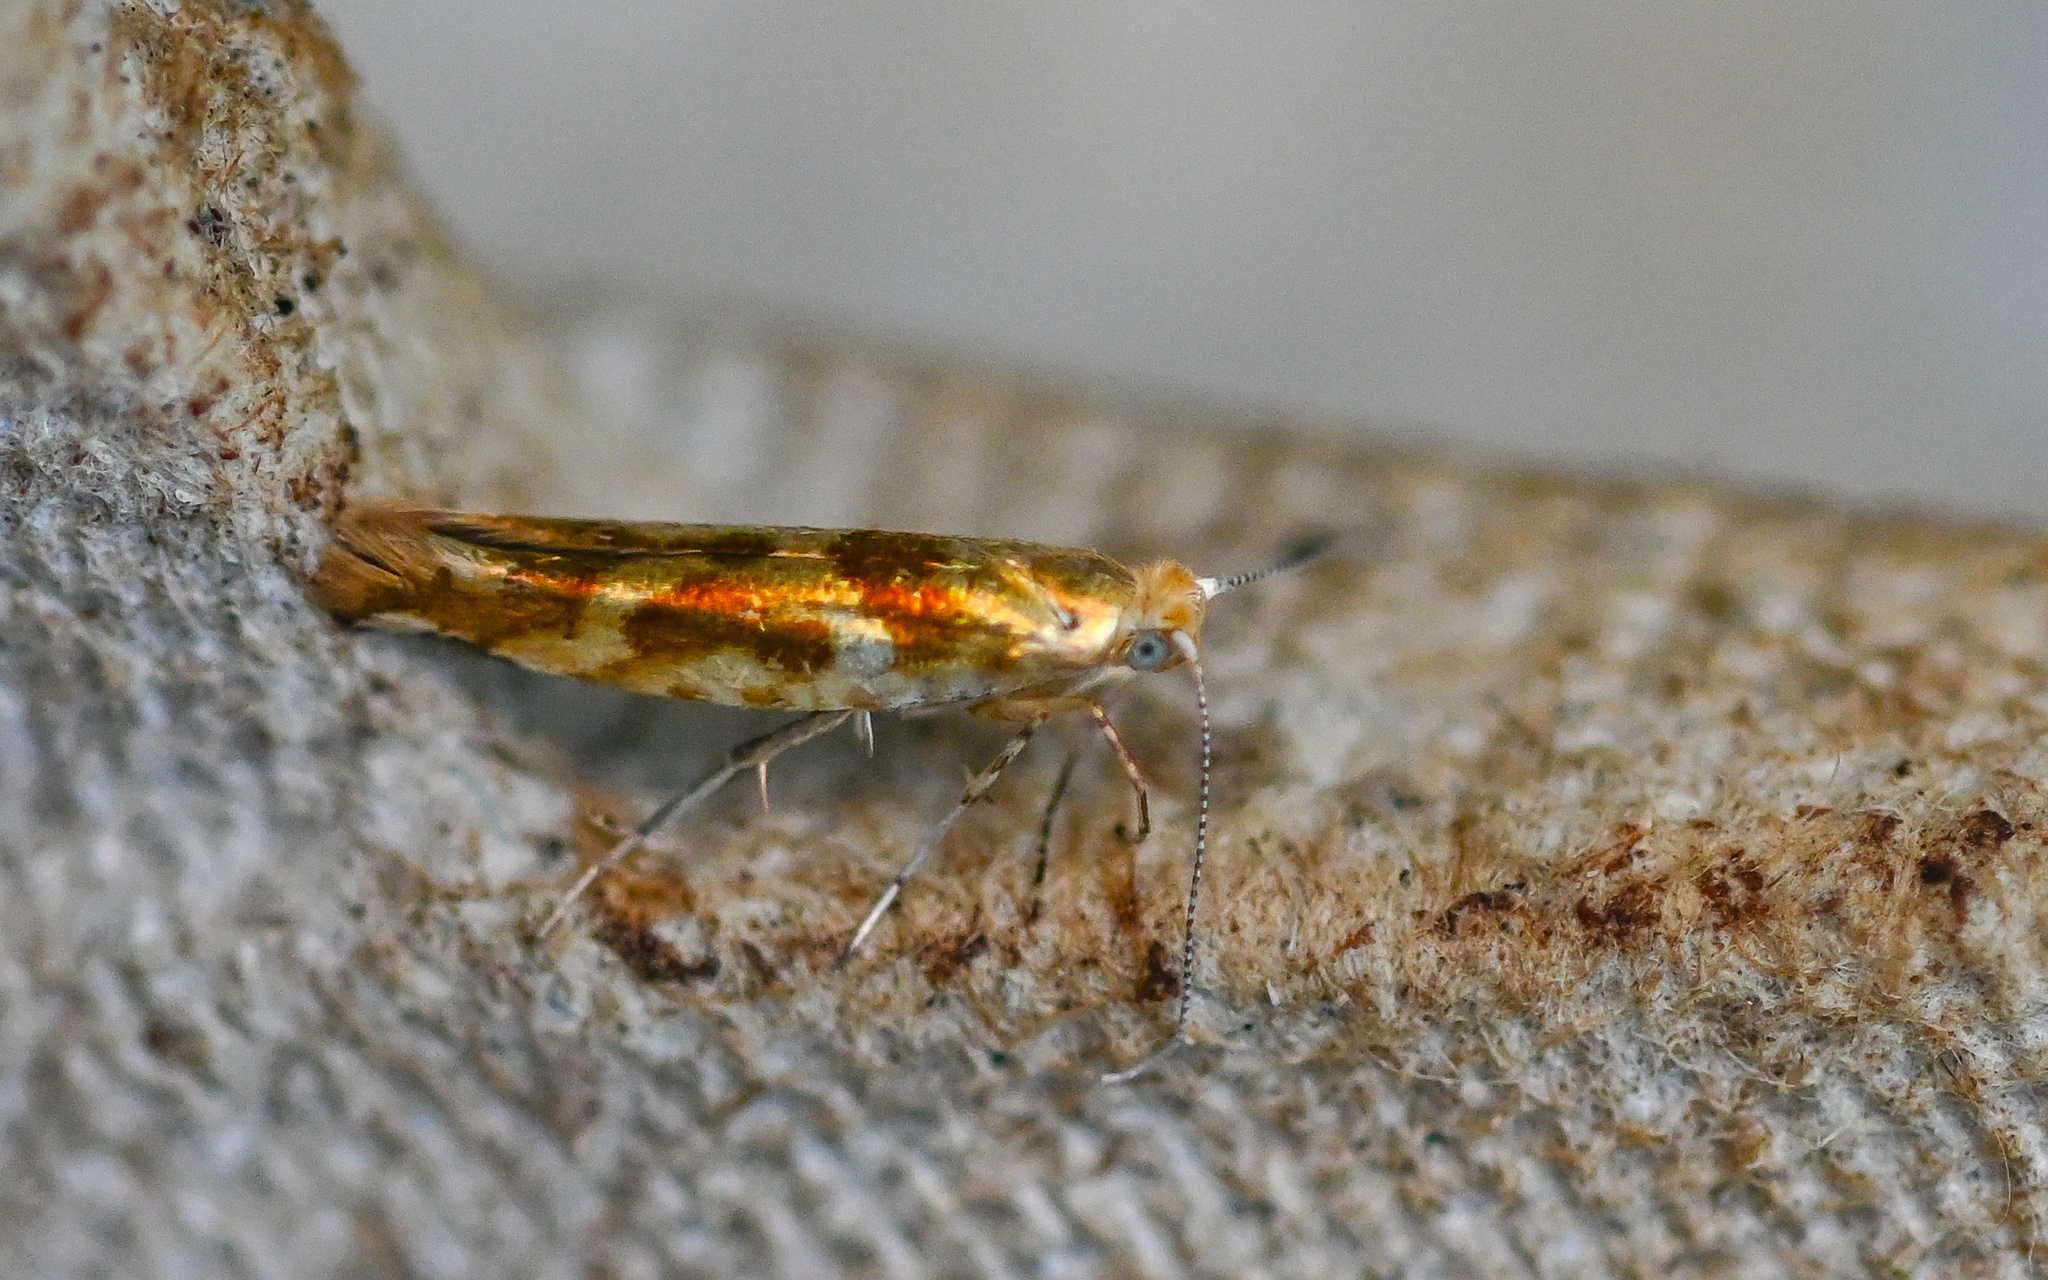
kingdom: Animalia
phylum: Arthropoda
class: Insecta
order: Lepidoptera
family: Argyresthiidae
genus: Argyresthia
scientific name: Argyresthia goedartella
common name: Golden argent
